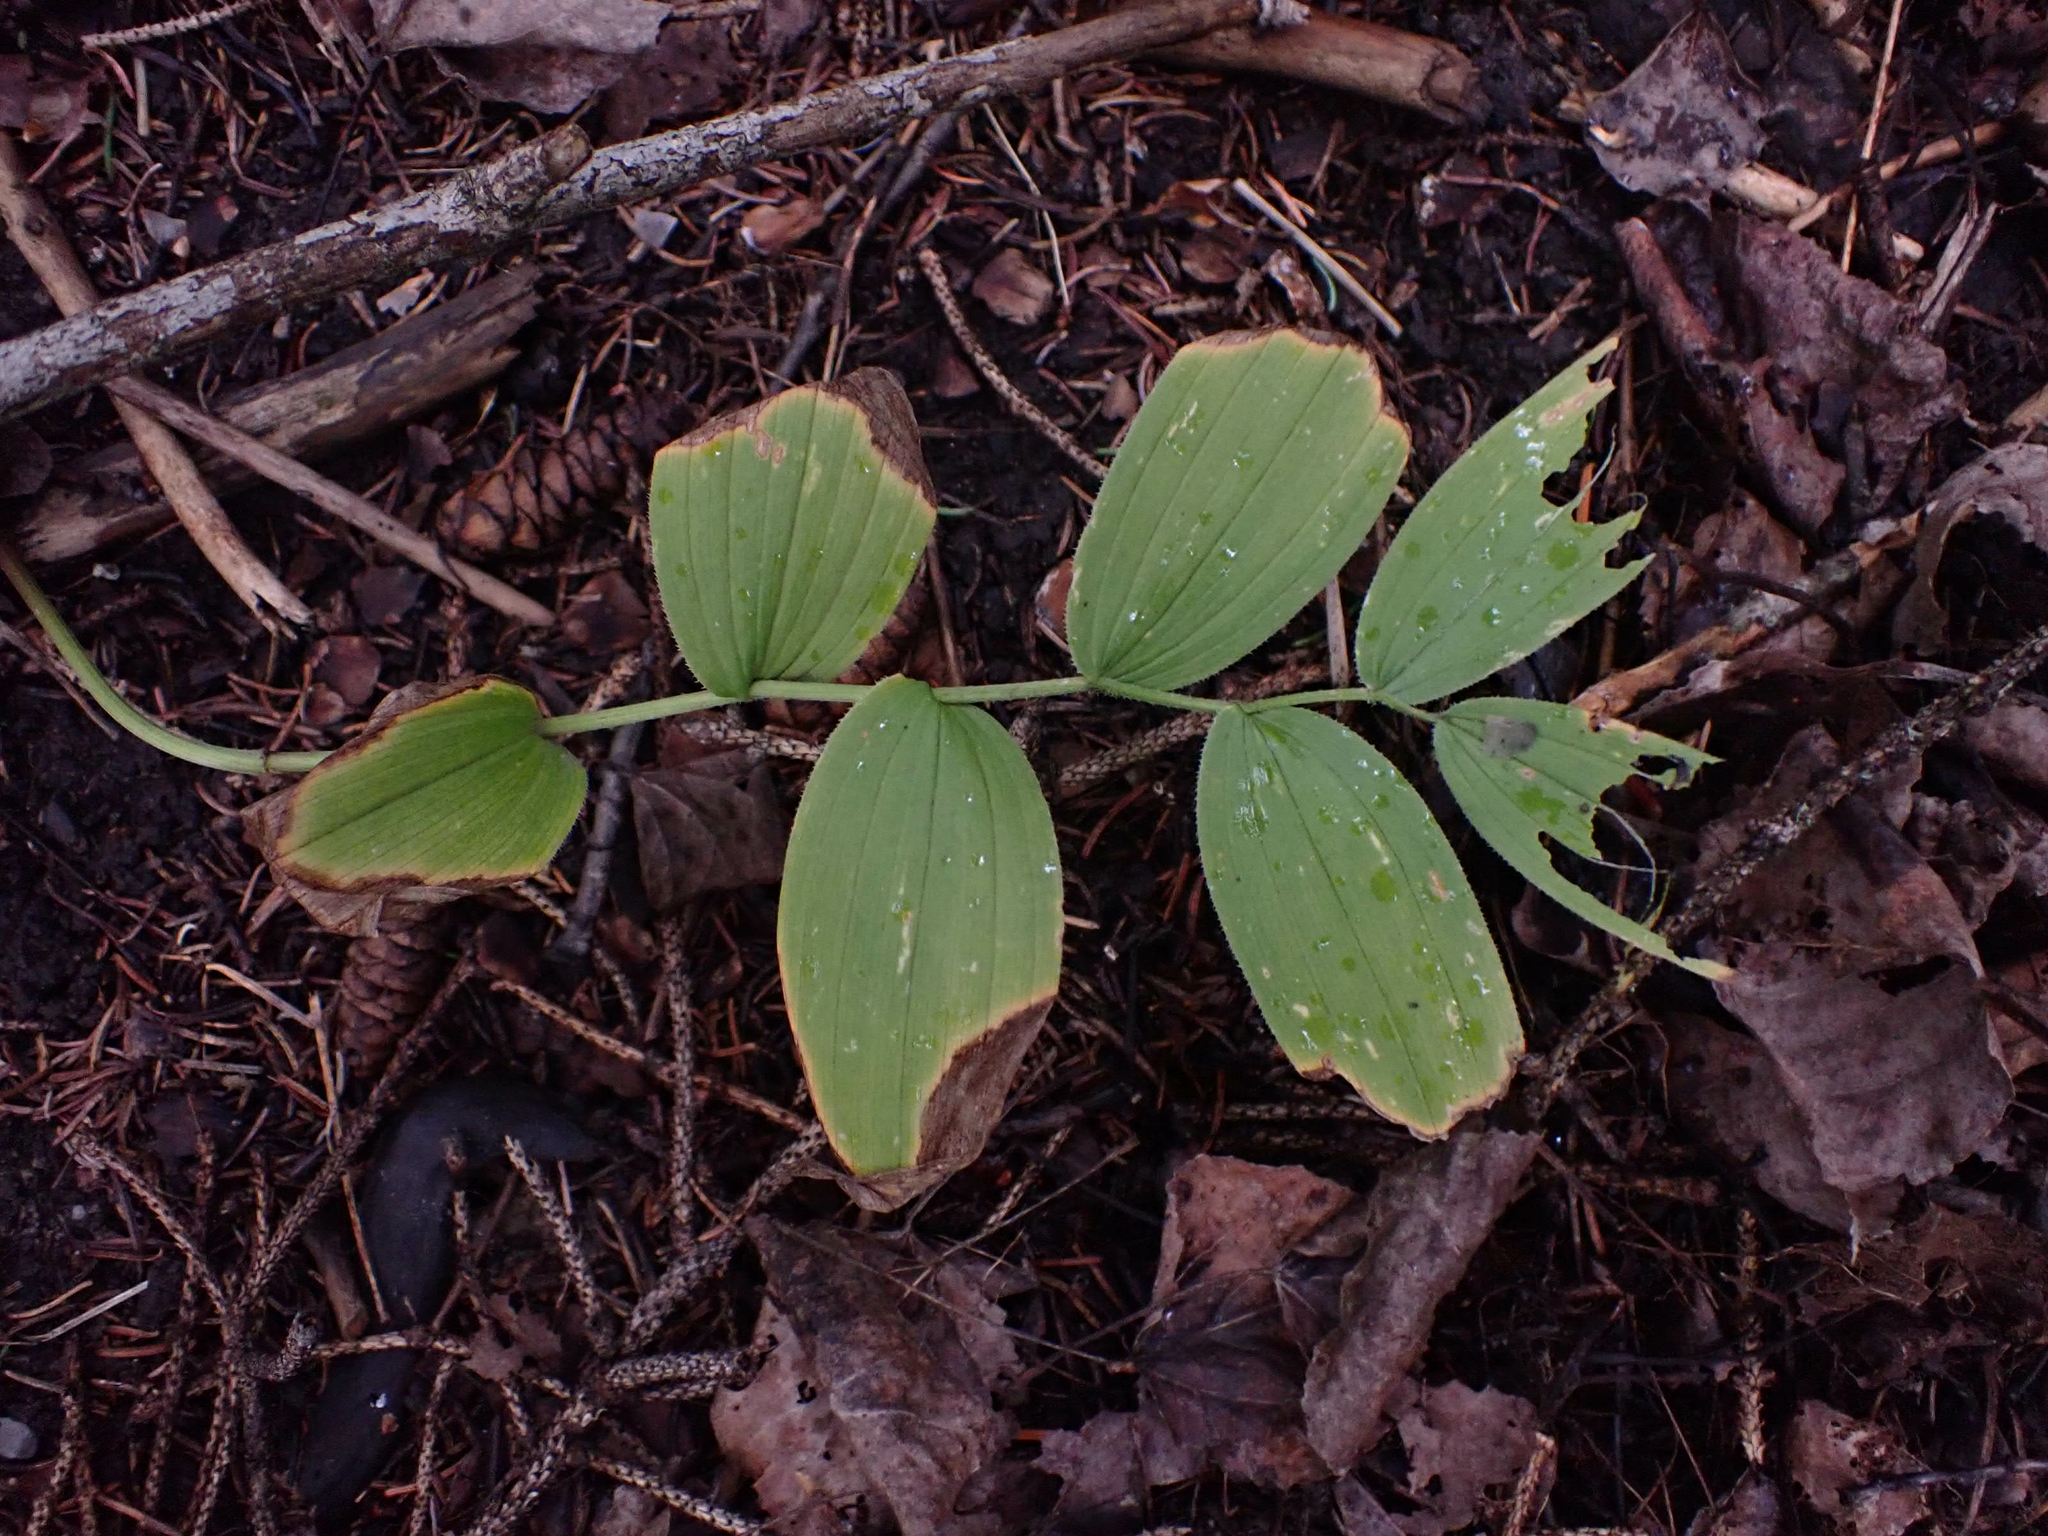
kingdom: Plantae
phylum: Tracheophyta
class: Liliopsida
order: Liliales
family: Liliaceae
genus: Streptopus
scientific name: Streptopus lanceolatus
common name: Rose mandarin
